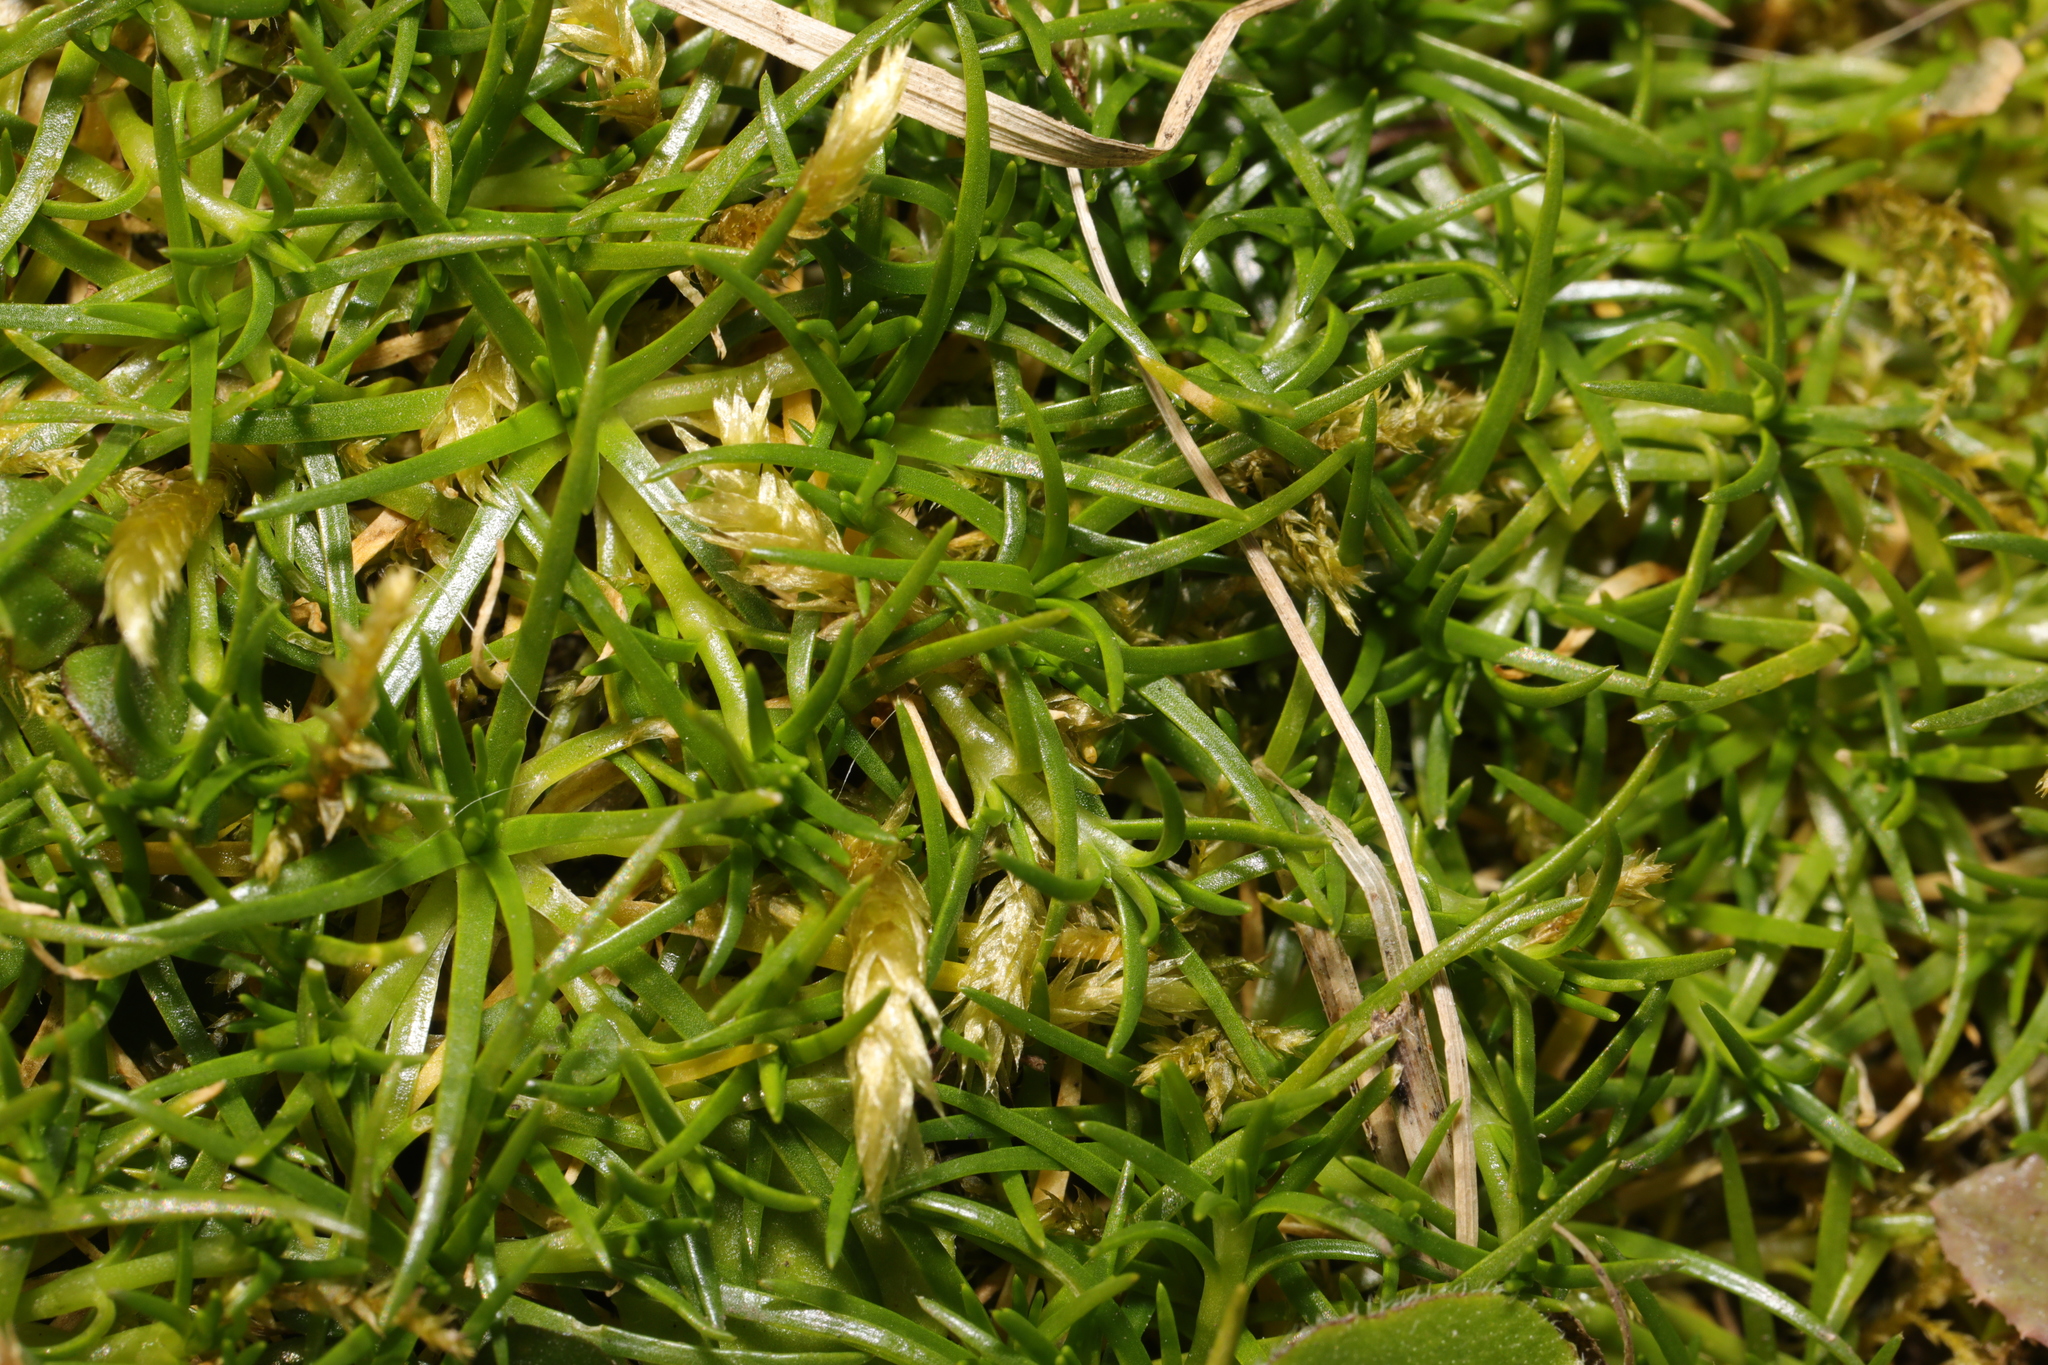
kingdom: Plantae
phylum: Tracheophyta
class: Magnoliopsida
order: Caryophyllales
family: Caryophyllaceae
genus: Sagina
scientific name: Sagina procumbens
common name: Procumbent pearlwort
